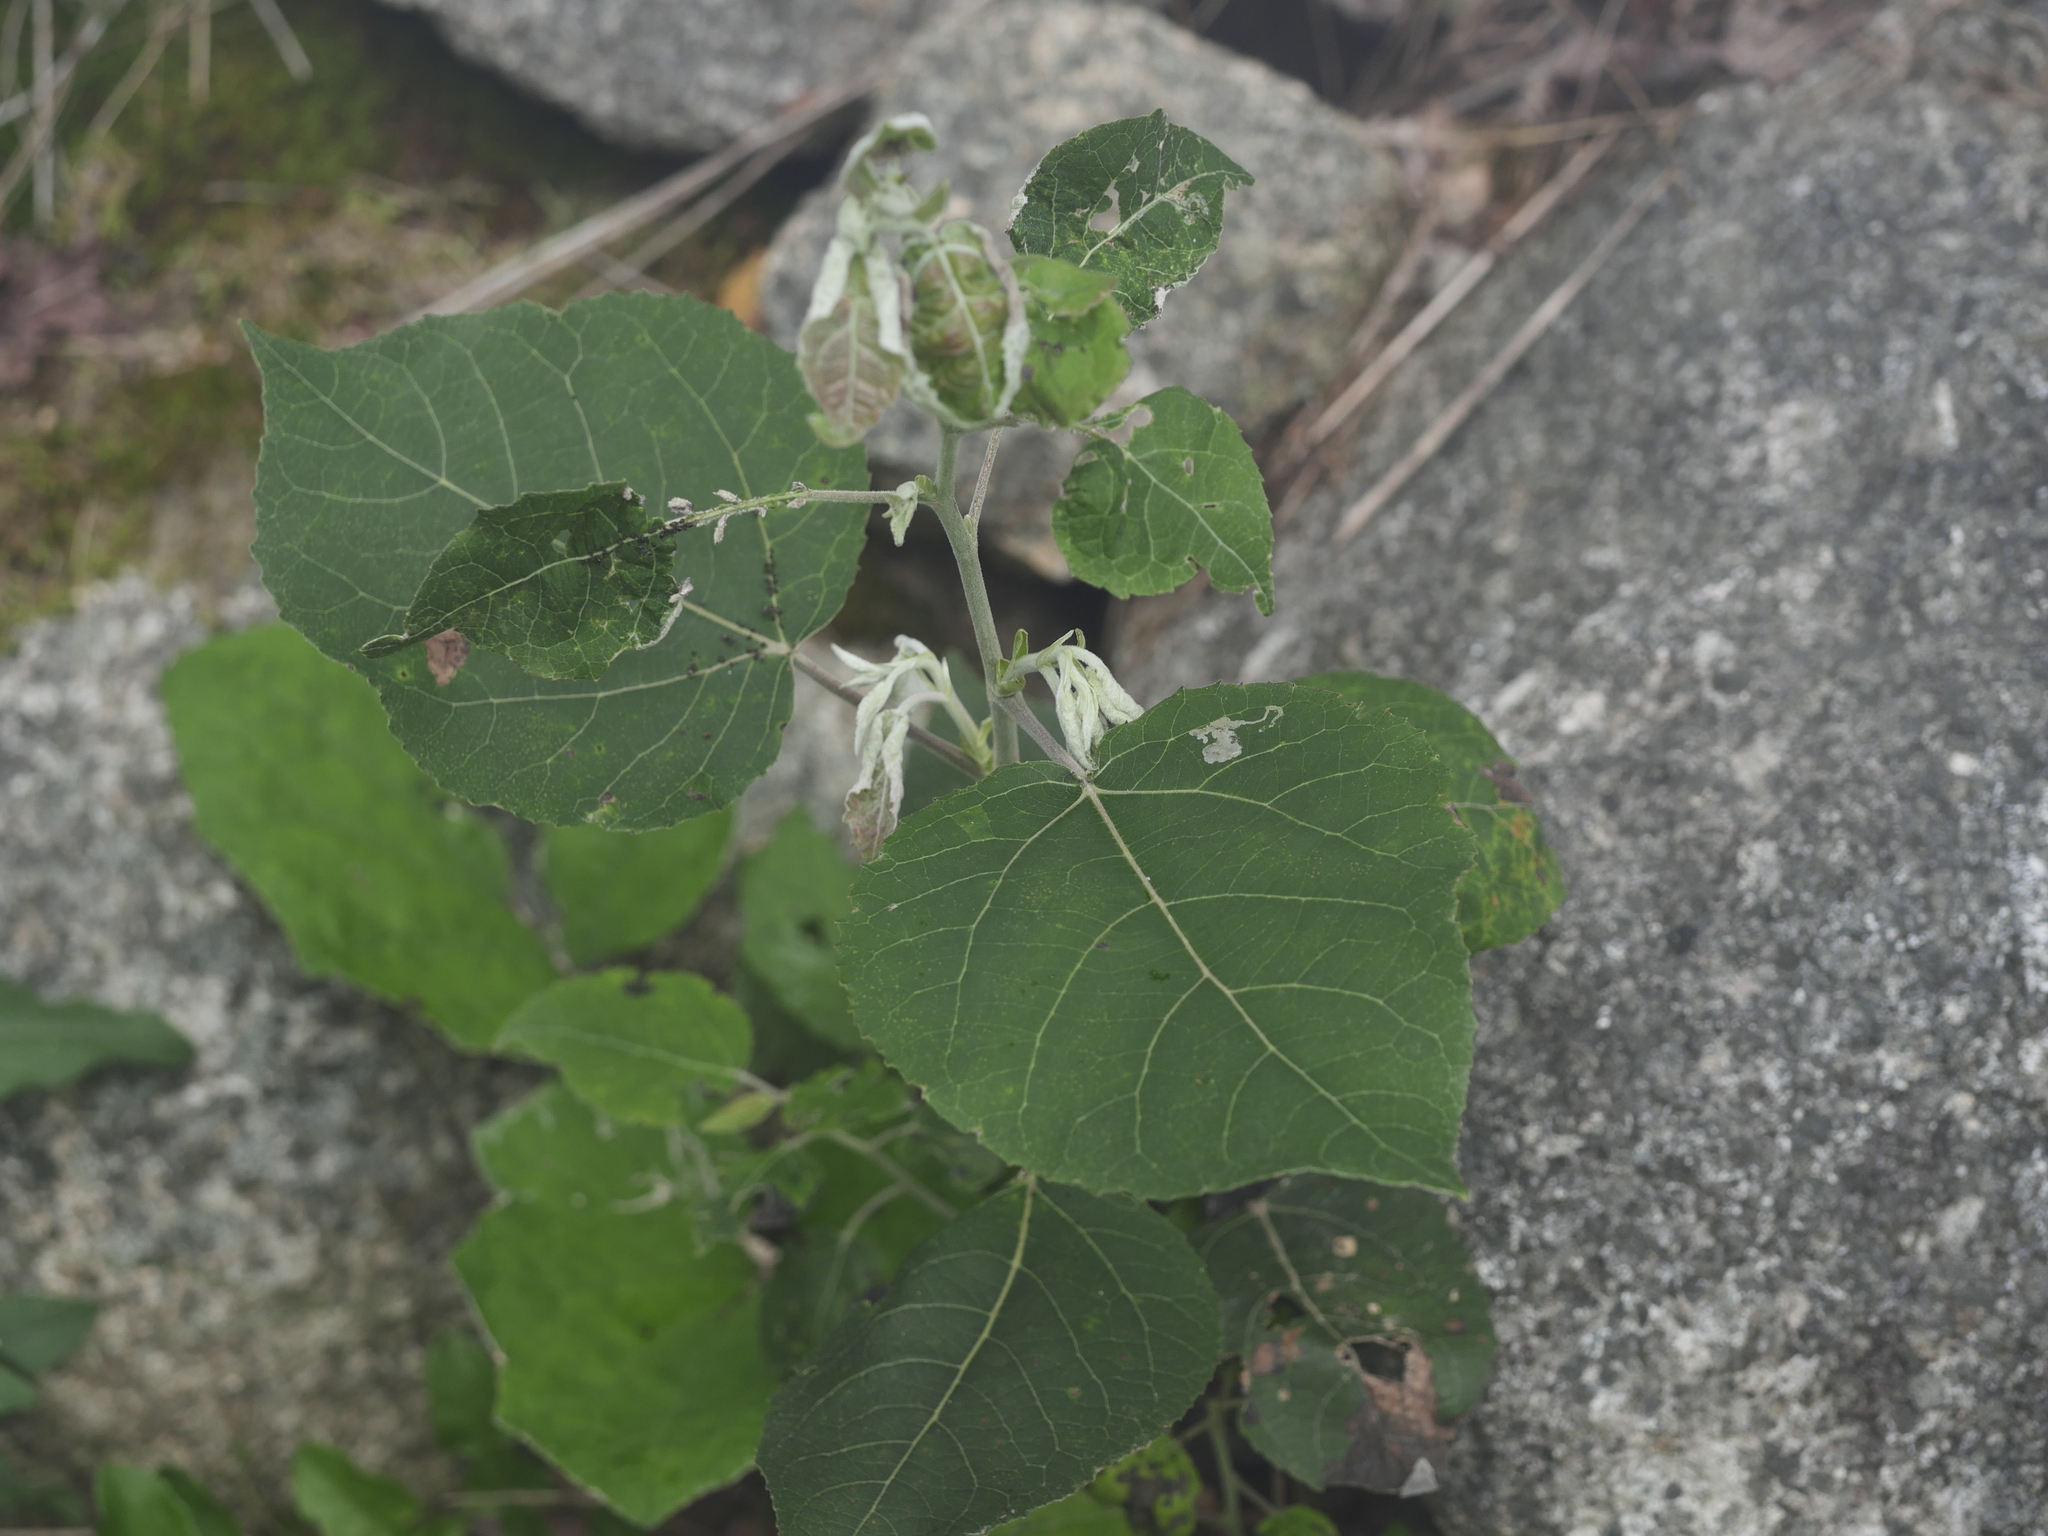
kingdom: Plantae
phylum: Tracheophyta
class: Magnoliopsida
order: Malpighiales
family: Salicaceae
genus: Populus
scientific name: Populus tremuloides
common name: Quaking aspen
